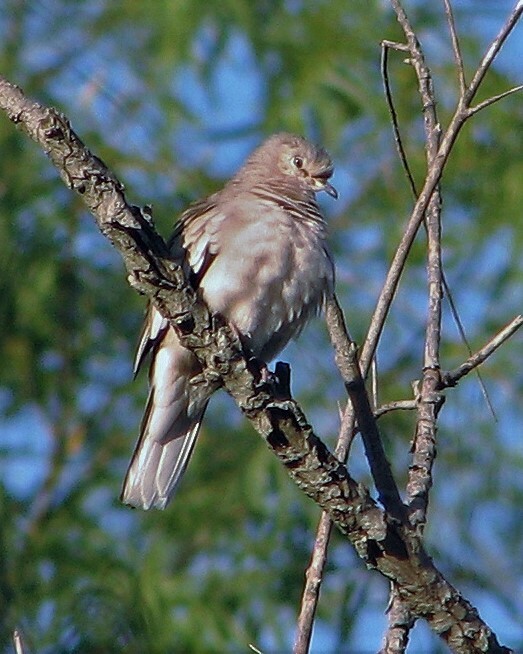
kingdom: Animalia
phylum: Chordata
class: Aves
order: Columbiformes
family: Columbidae
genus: Columbina
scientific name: Columbina picui
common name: Picui ground dove
